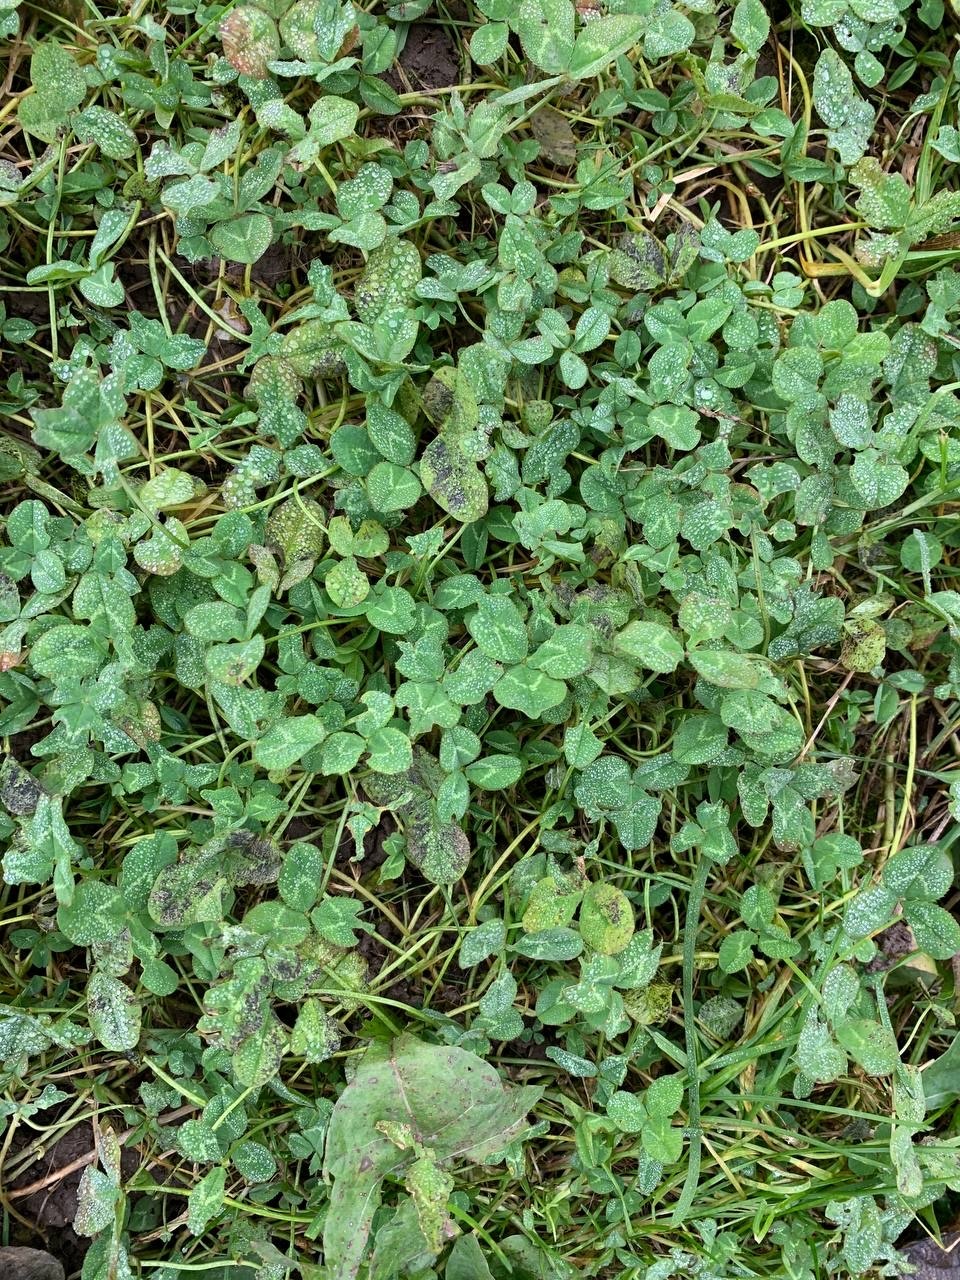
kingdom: Plantae
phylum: Tracheophyta
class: Magnoliopsida
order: Fabales
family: Fabaceae
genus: Trifolium
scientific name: Trifolium repens
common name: White clover
